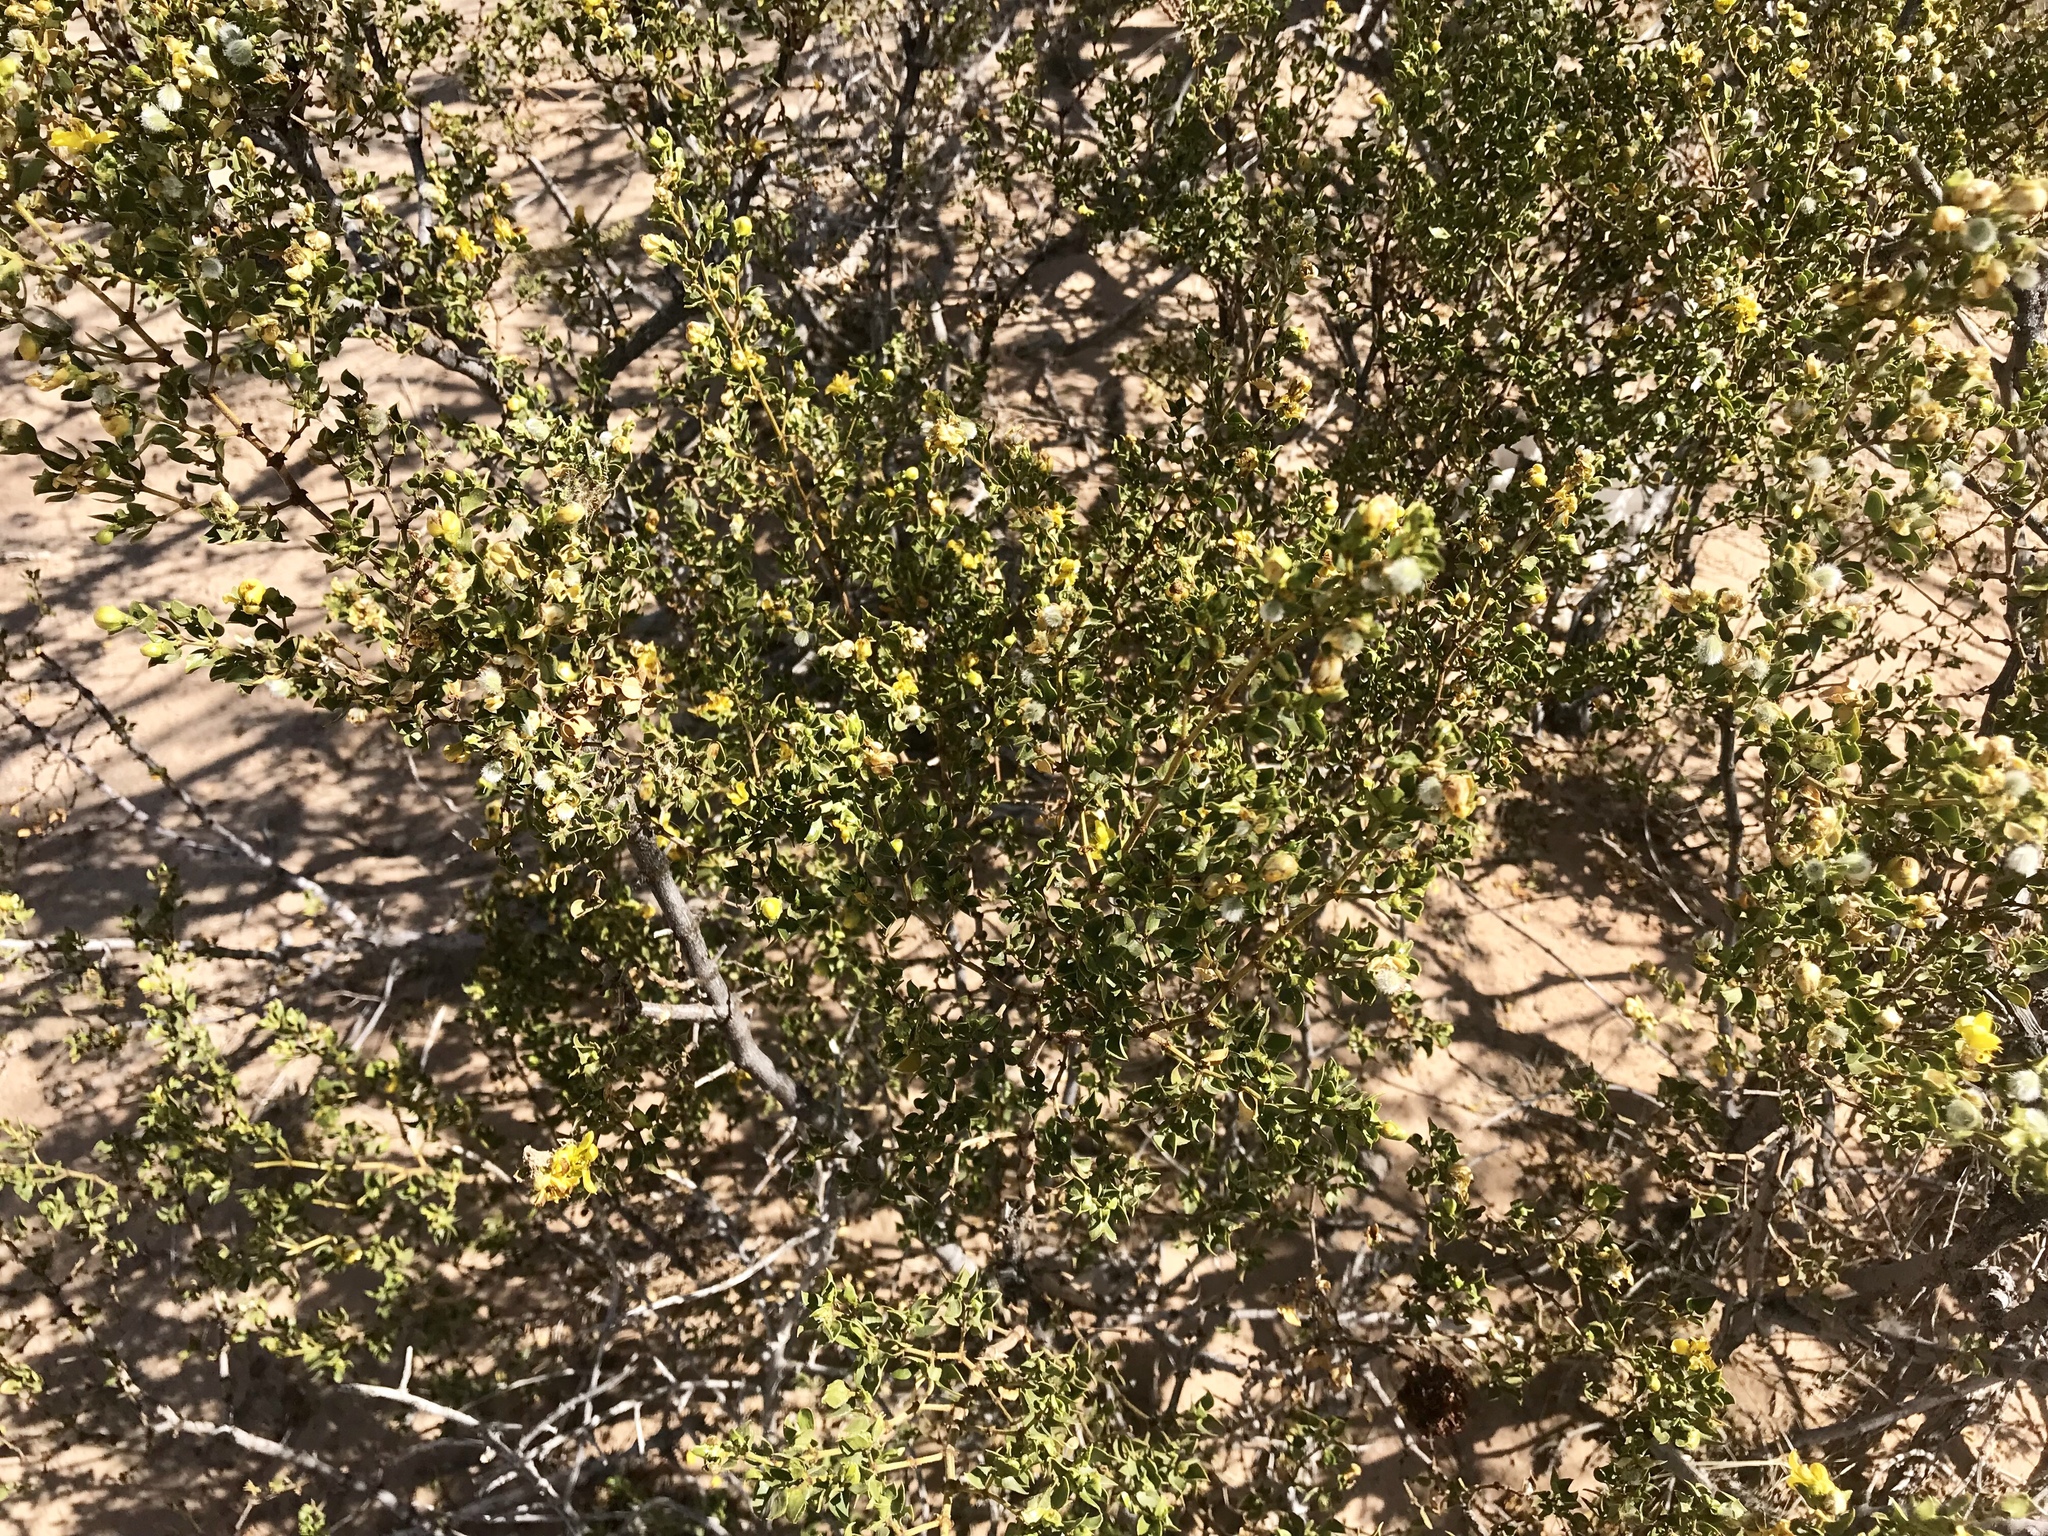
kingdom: Plantae
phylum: Tracheophyta
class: Magnoliopsida
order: Zygophyllales
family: Zygophyllaceae
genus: Larrea
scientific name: Larrea tridentata
